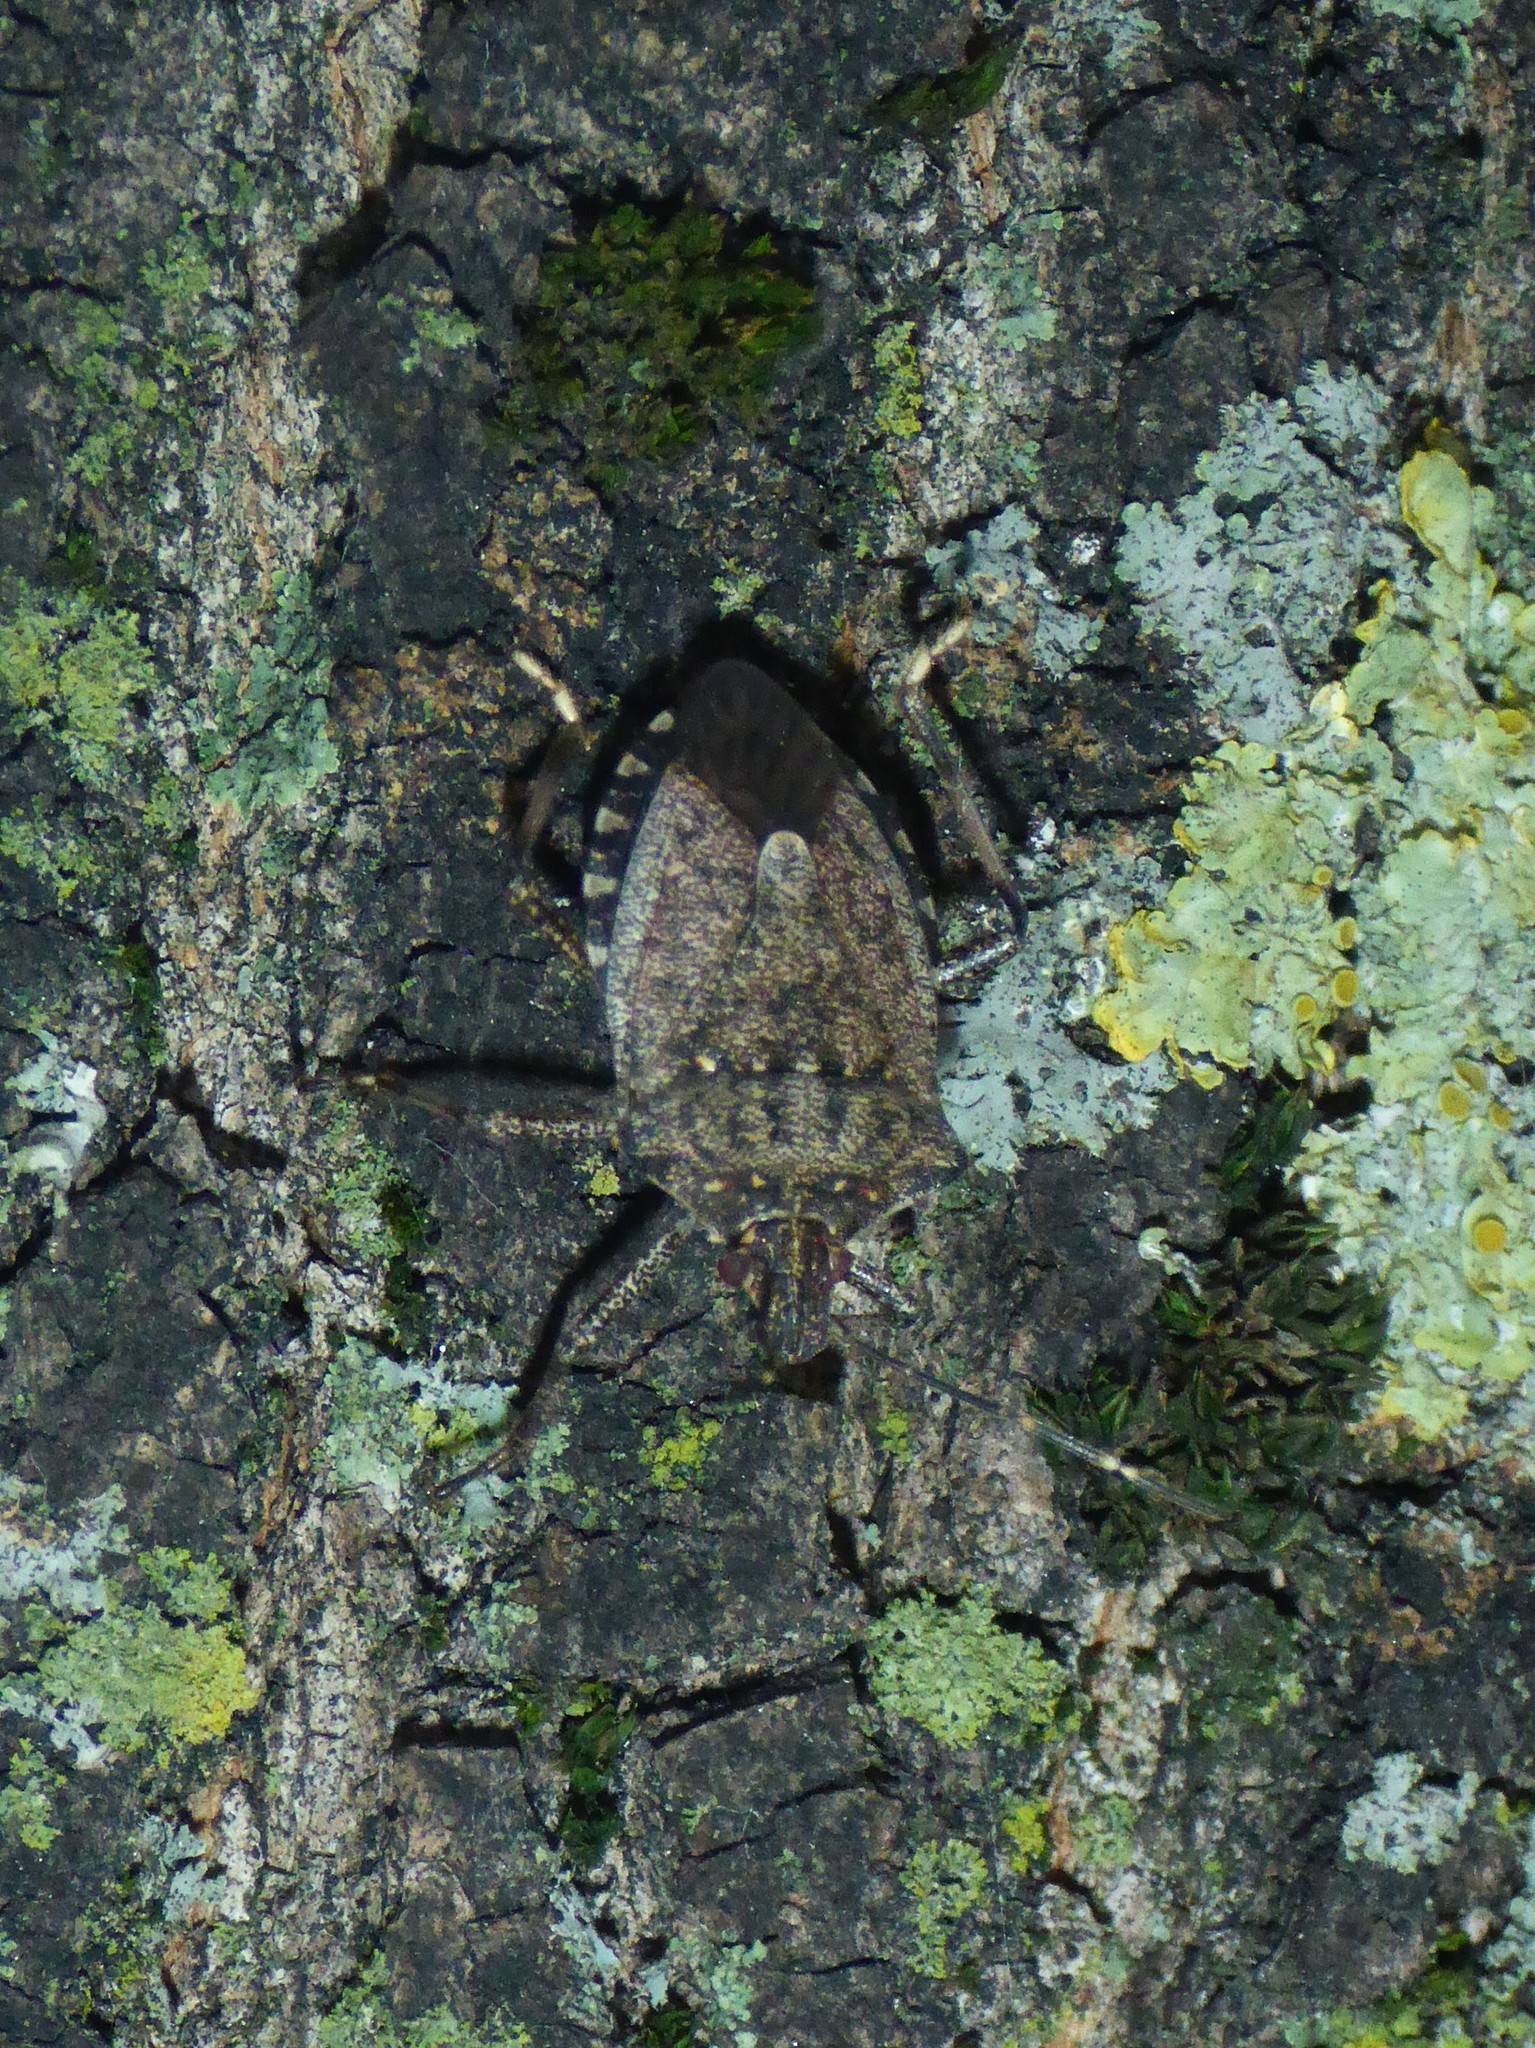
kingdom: Animalia
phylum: Arthropoda
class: Insecta
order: Hemiptera
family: Pentatomidae
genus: Halyomorpha
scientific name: Halyomorpha halys
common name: Brown marmorated stink bug
